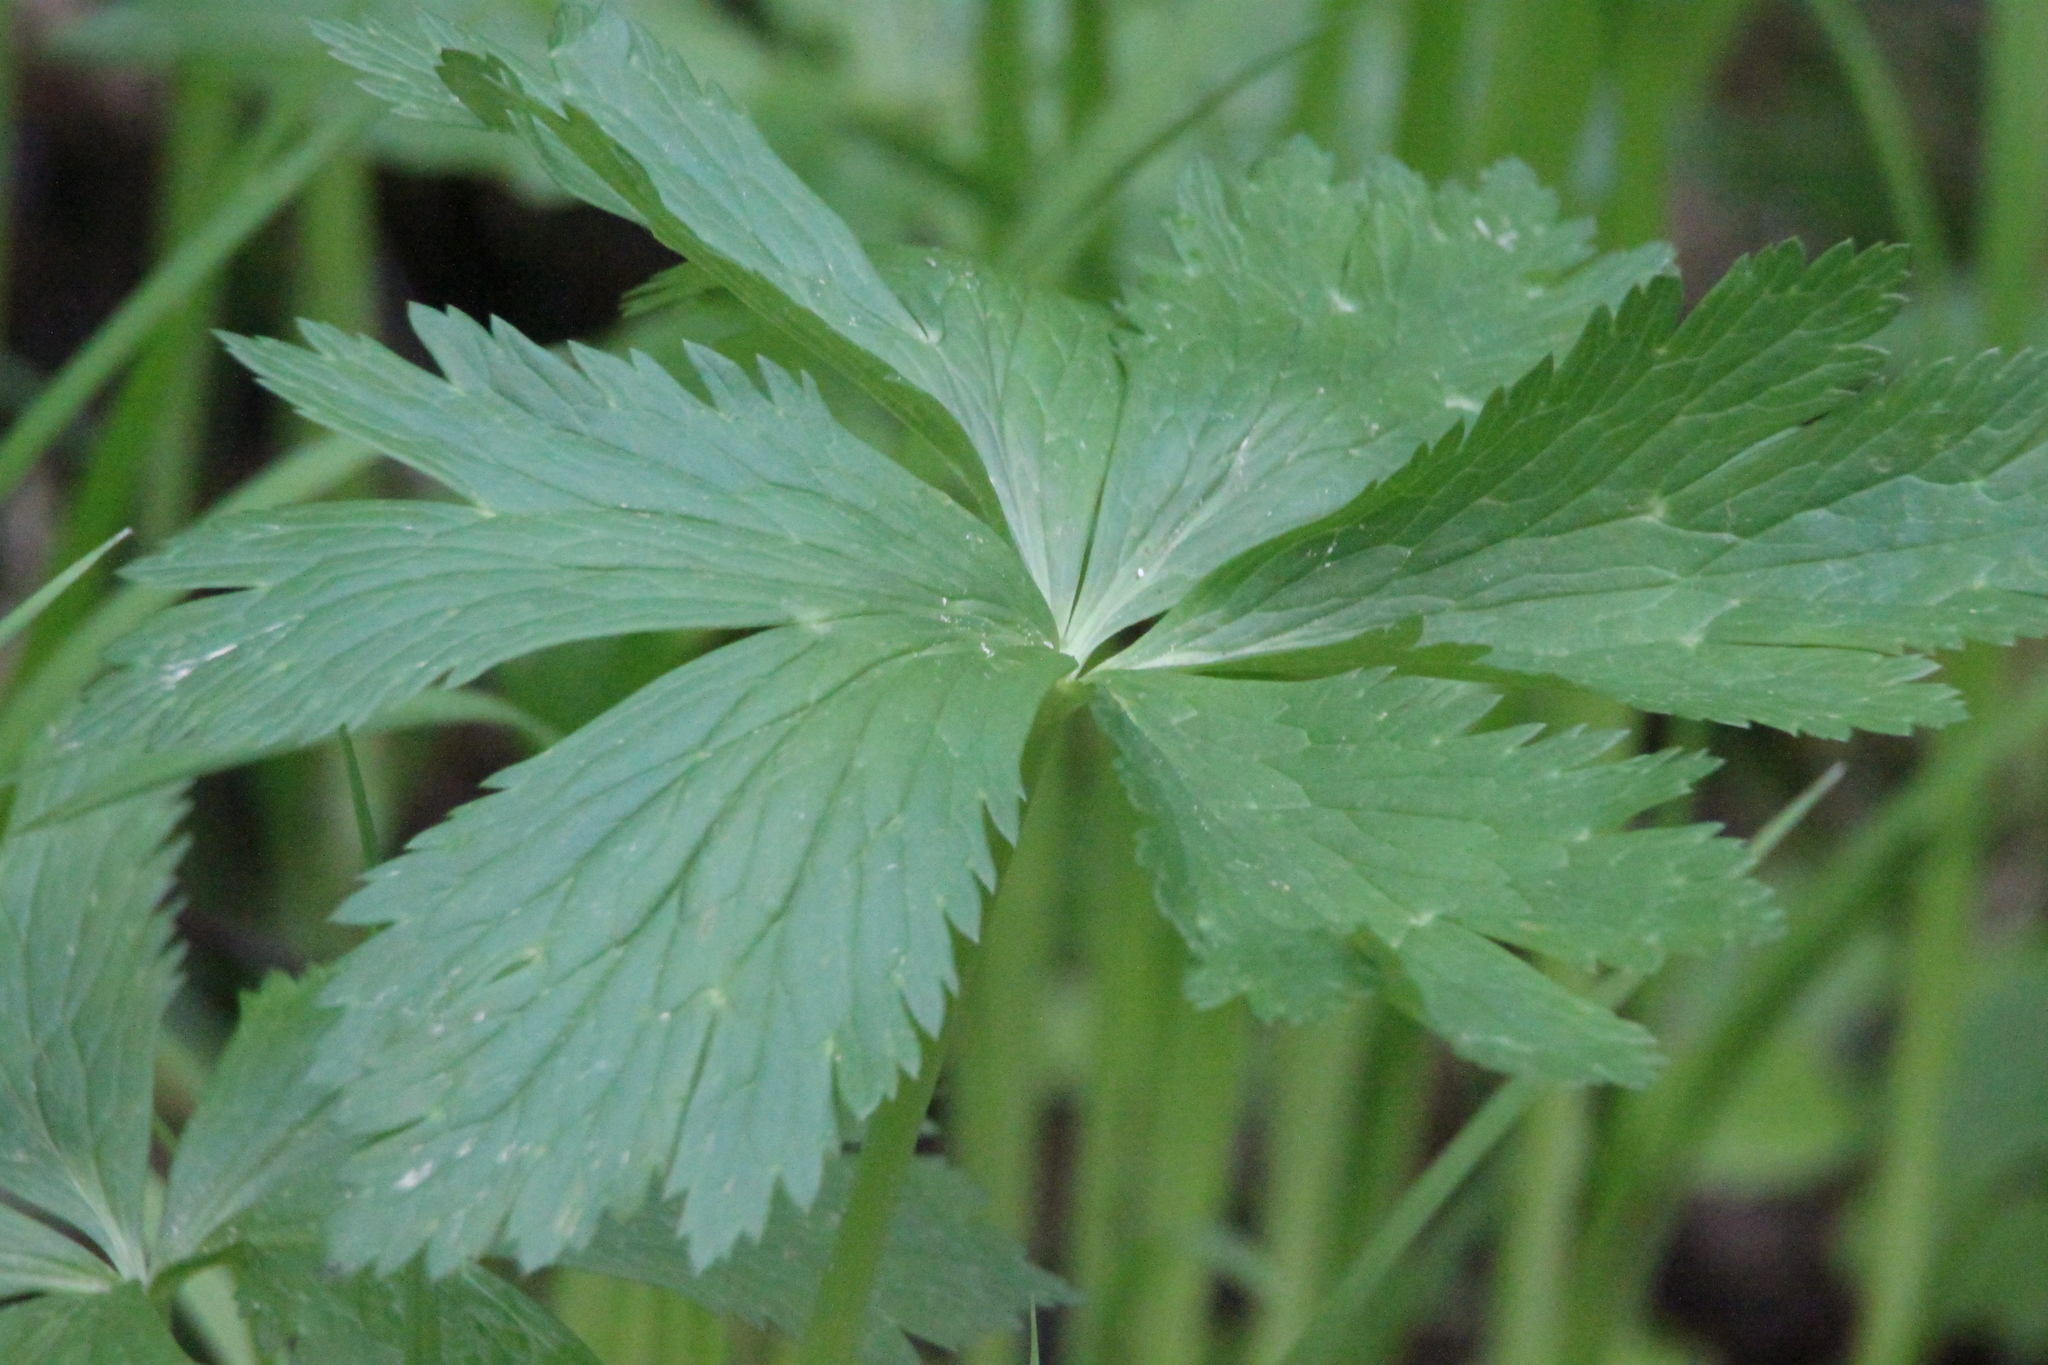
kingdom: Plantae
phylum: Tracheophyta
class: Magnoliopsida
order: Ranunculales
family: Ranunculaceae
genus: Trollius
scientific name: Trollius europaeus
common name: European globeflower
